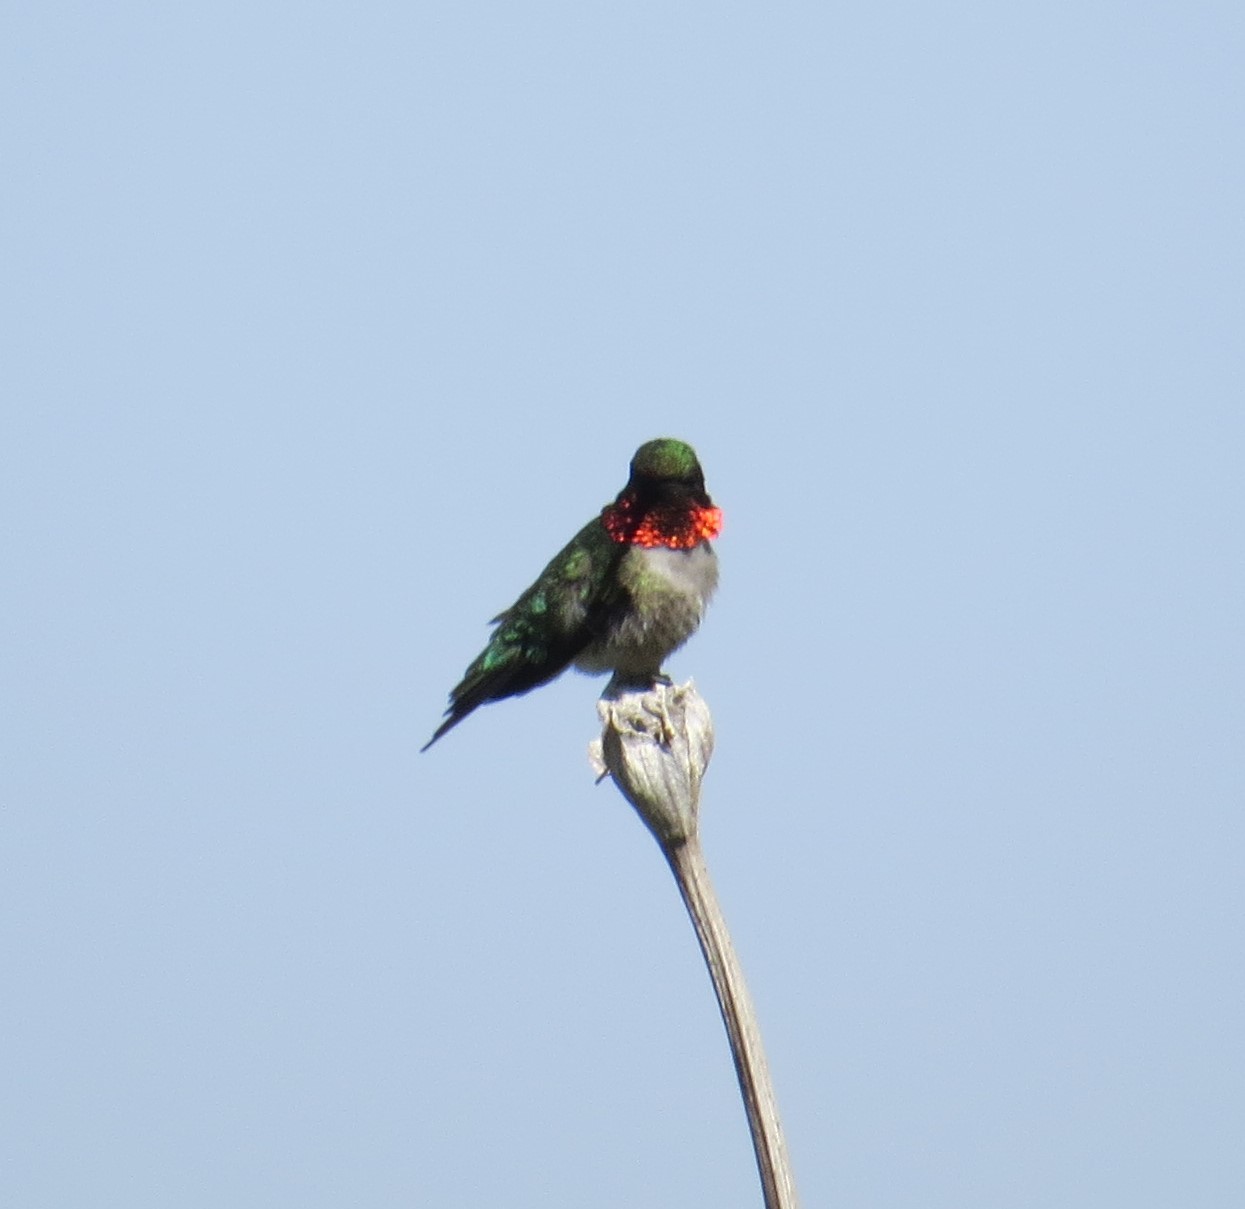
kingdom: Animalia
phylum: Chordata
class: Aves
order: Apodiformes
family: Trochilidae
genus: Archilochus
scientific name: Archilochus colubris
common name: Ruby-throated hummingbird
